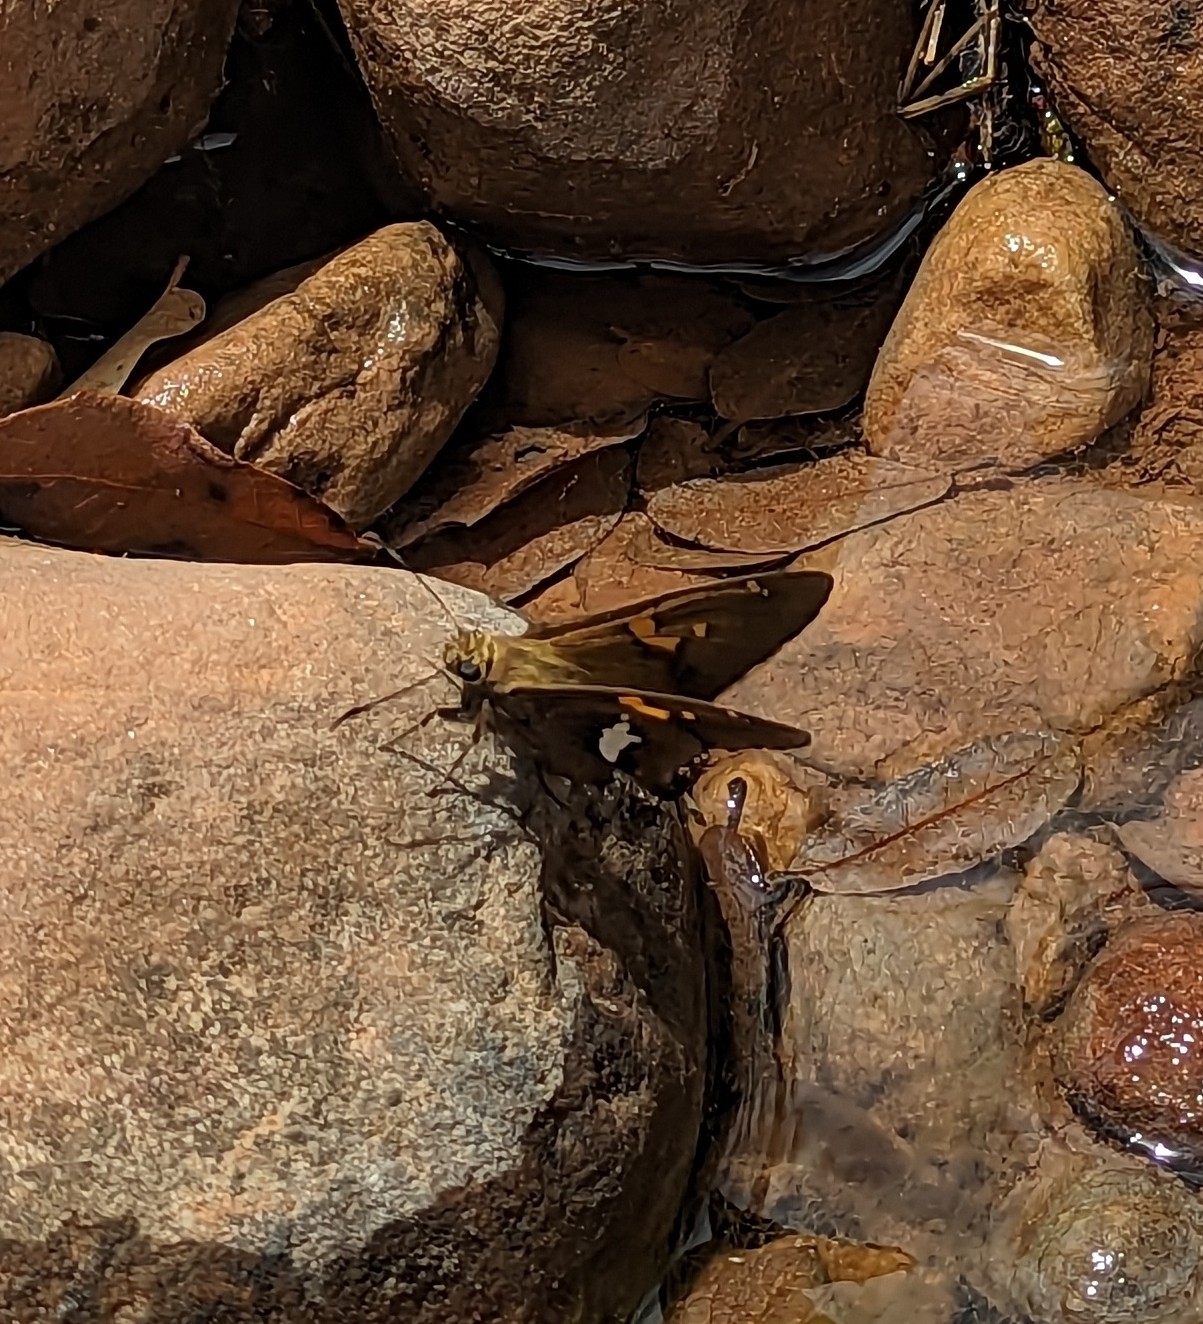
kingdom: Animalia
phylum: Arthropoda
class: Insecta
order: Lepidoptera
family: Hesperiidae
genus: Epargyreus
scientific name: Epargyreus clarus
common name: Silver-spotted skipper
